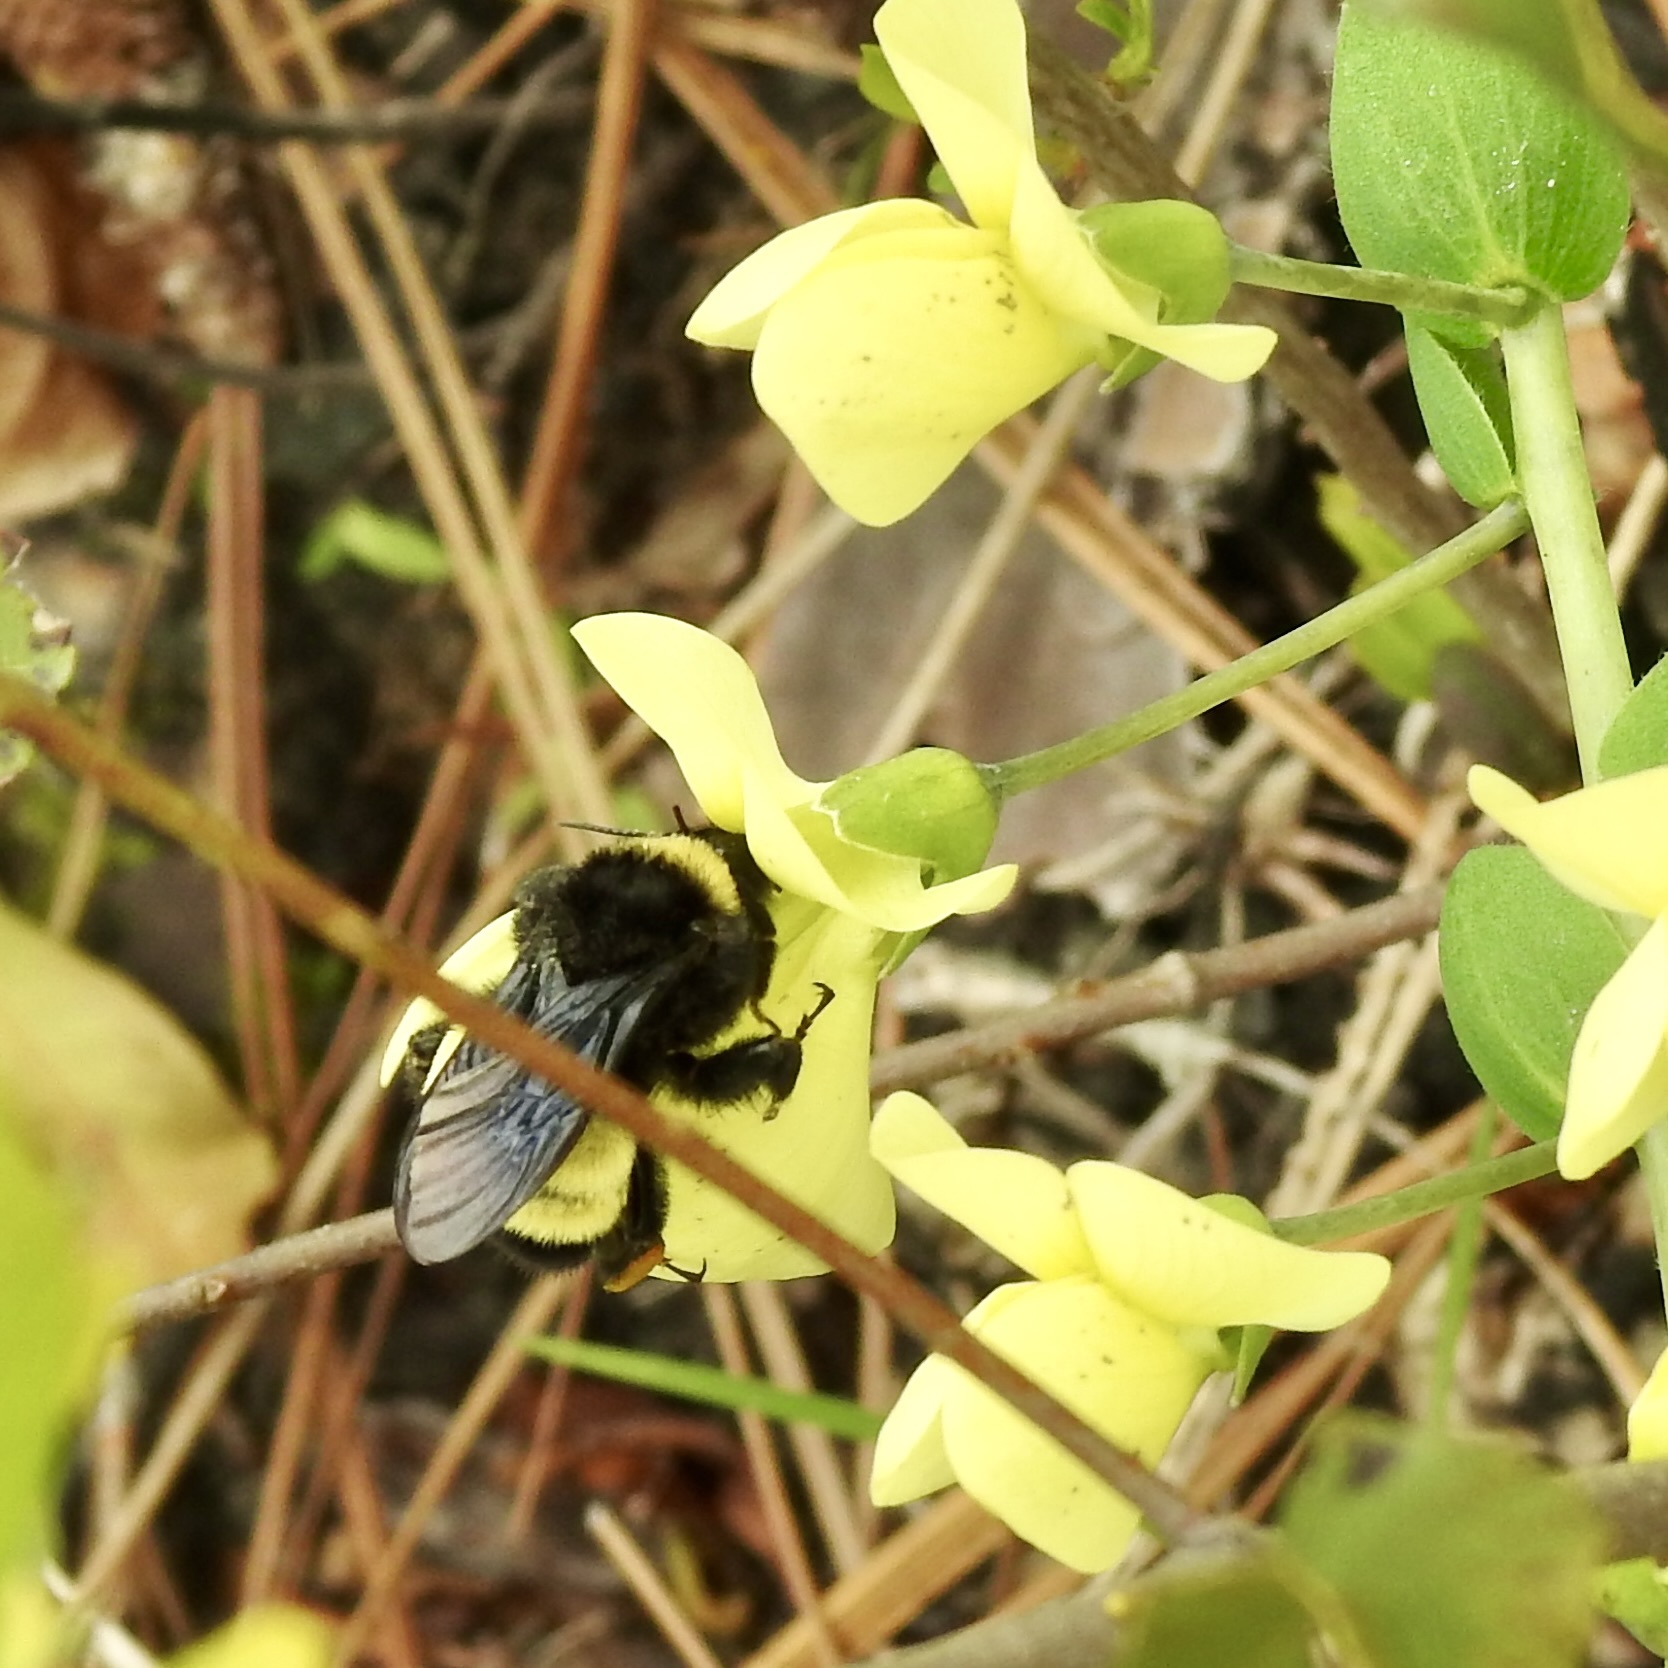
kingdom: Animalia
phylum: Arthropoda
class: Insecta
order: Hymenoptera
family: Apidae
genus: Bombus
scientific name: Bombus pensylvanicus
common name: Bumble bee
